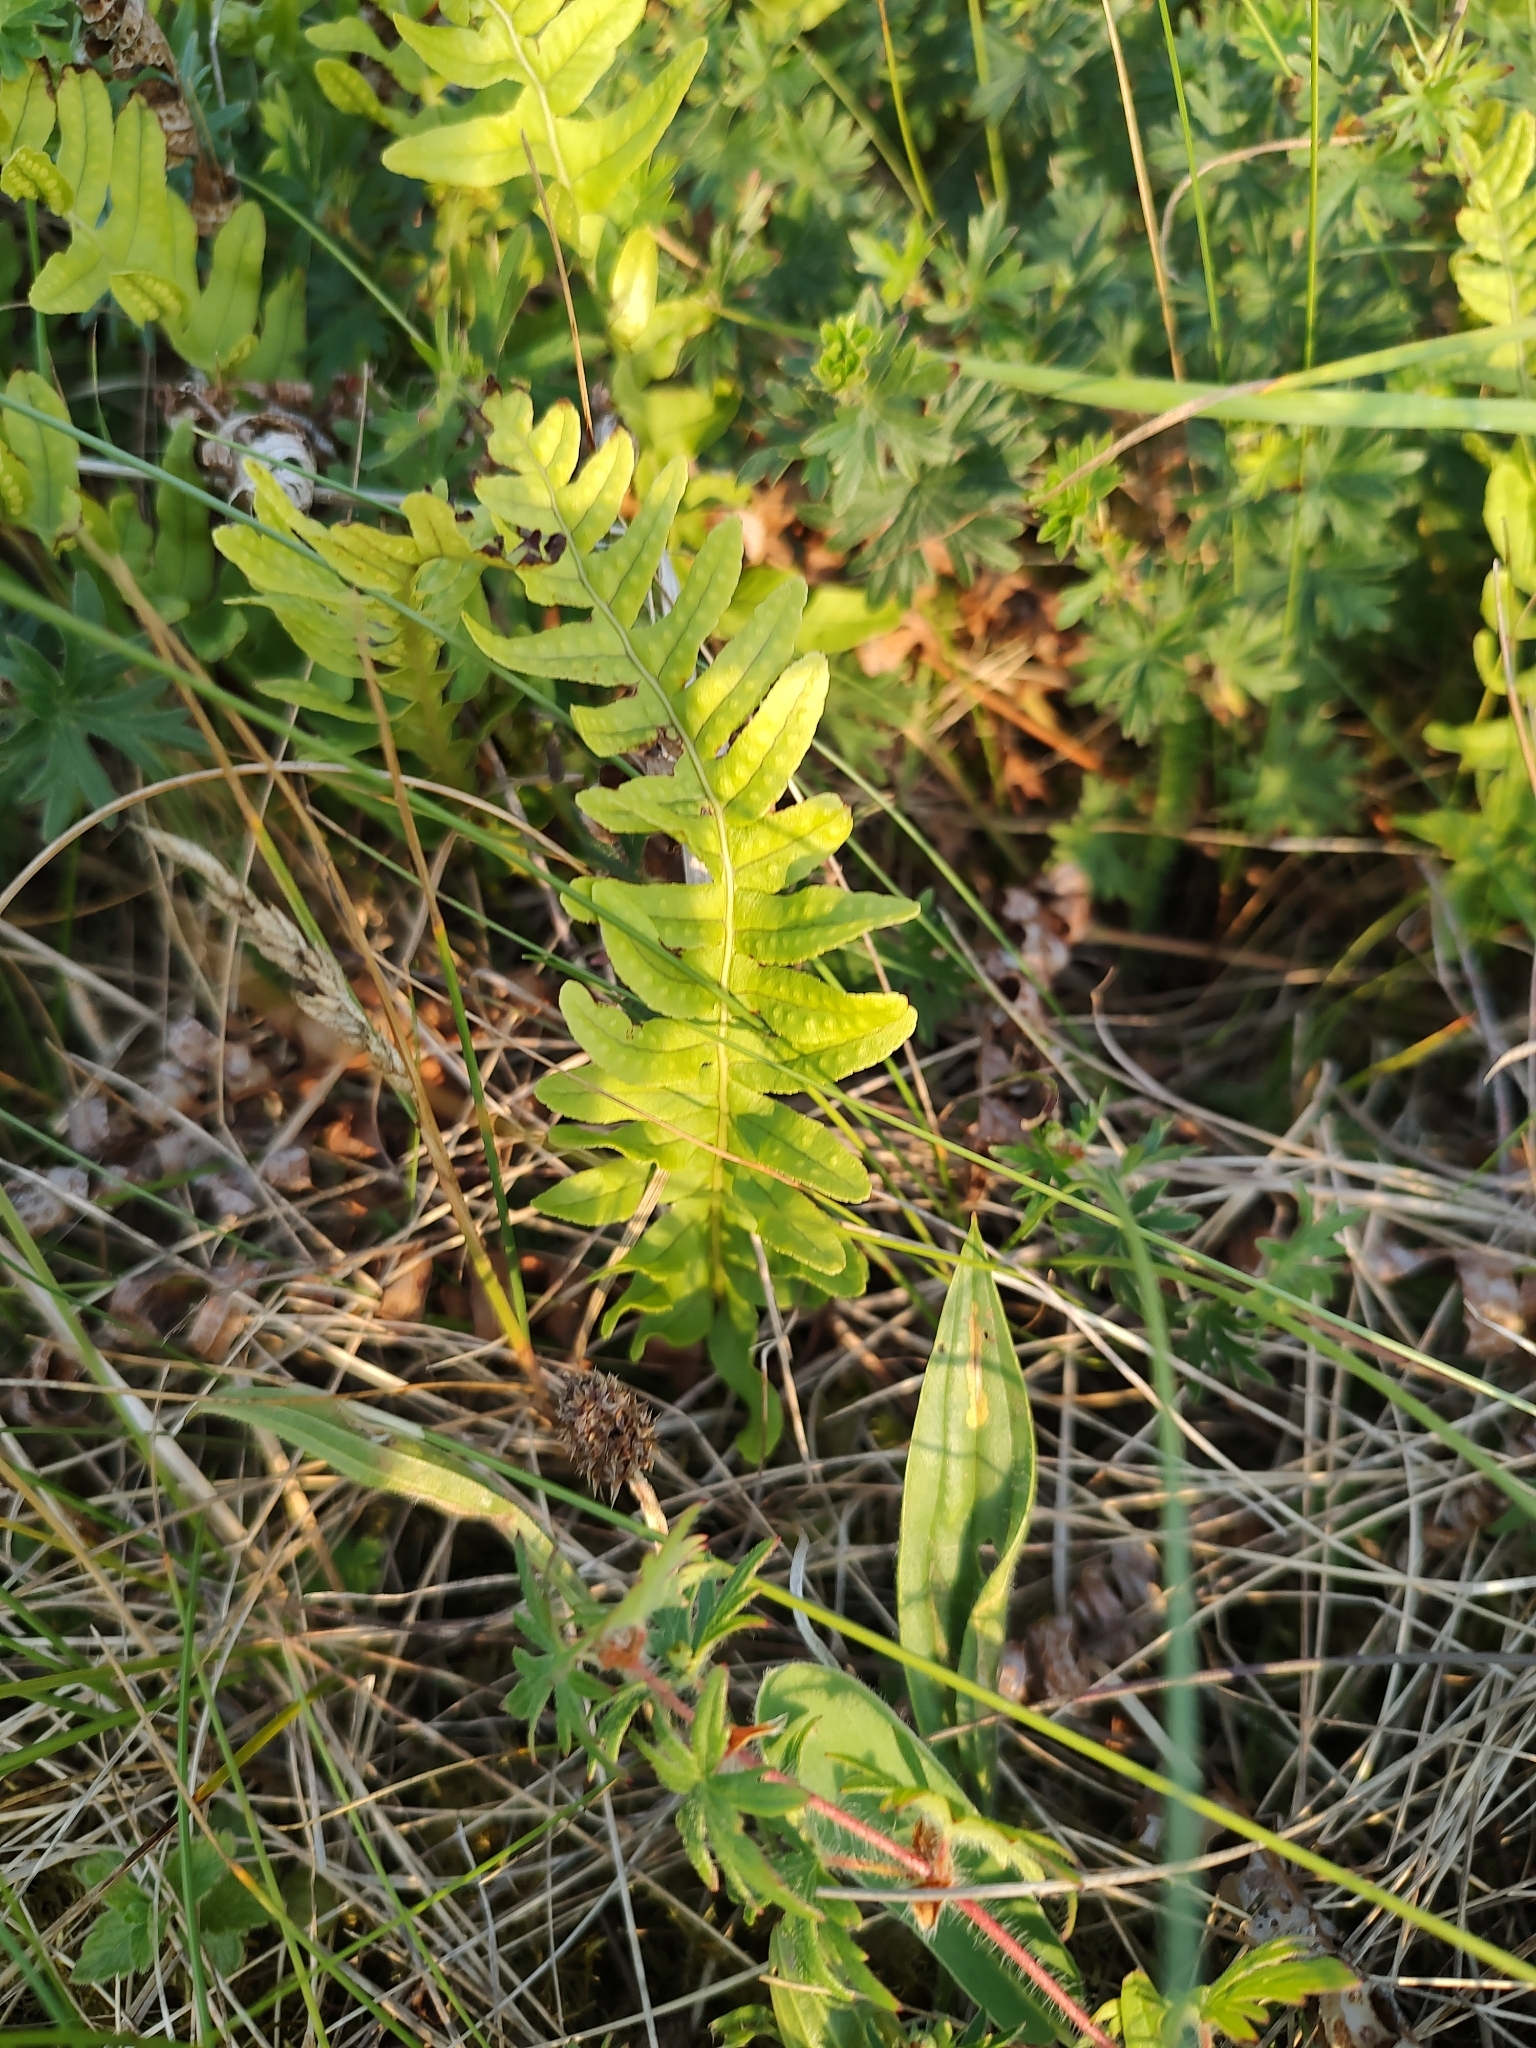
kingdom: Plantae
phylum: Tracheophyta
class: Polypodiopsida
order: Polypodiales
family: Polypodiaceae
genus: Polypodium
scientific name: Polypodium vulgare
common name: Common polypody
